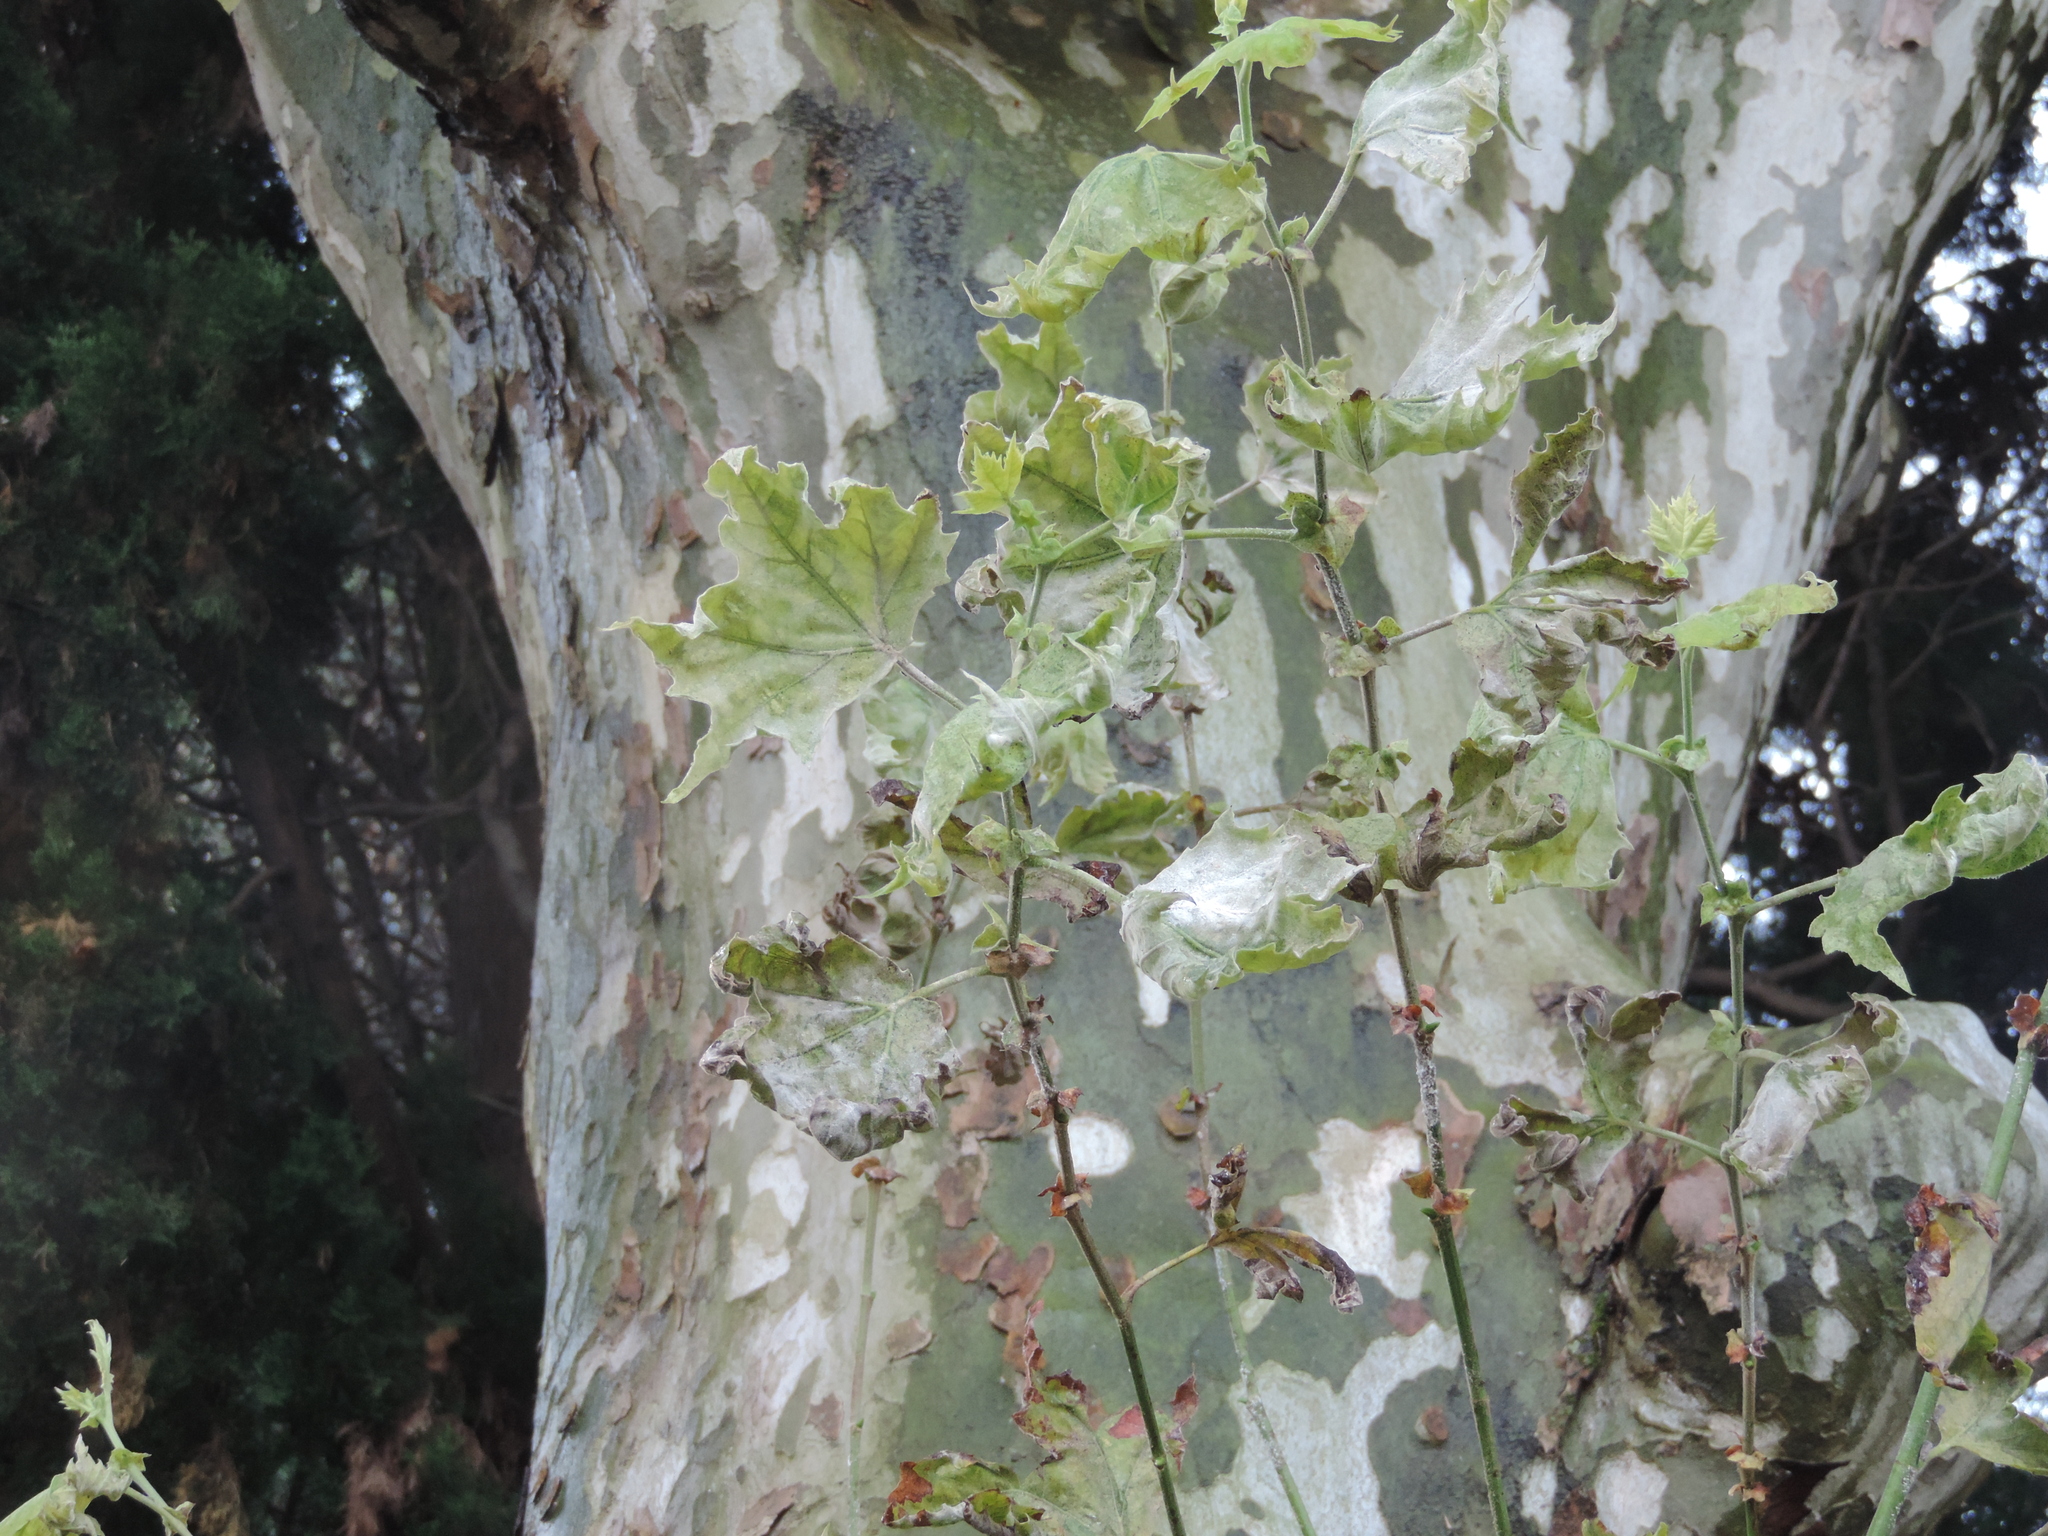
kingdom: Fungi
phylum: Ascomycota
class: Leotiomycetes
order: Helotiales
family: Erysiphaceae
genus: Erysiphe
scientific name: Erysiphe platani
